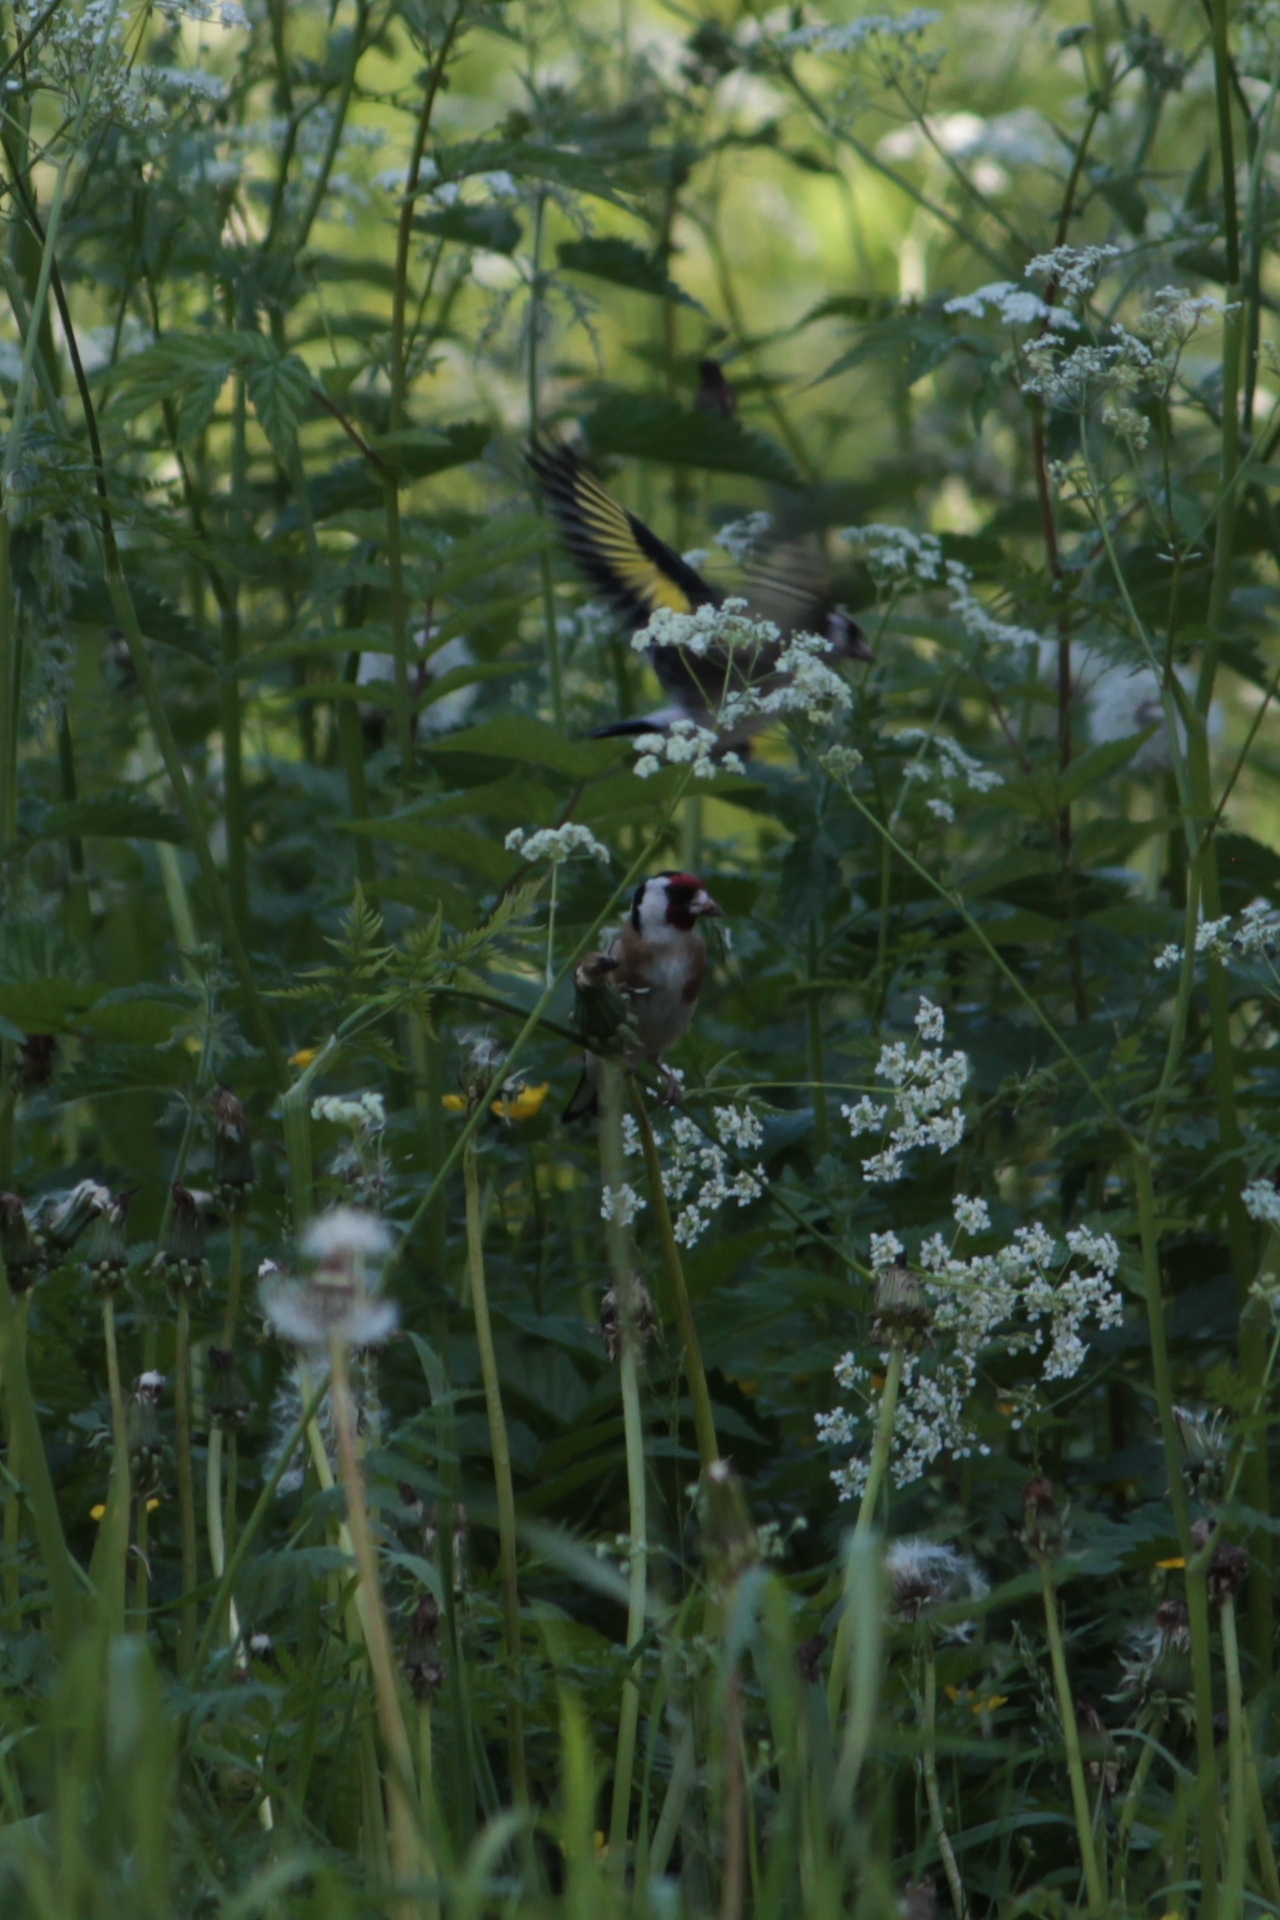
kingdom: Animalia
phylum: Chordata
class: Aves
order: Passeriformes
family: Fringillidae
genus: Carduelis
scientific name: Carduelis carduelis
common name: European goldfinch
